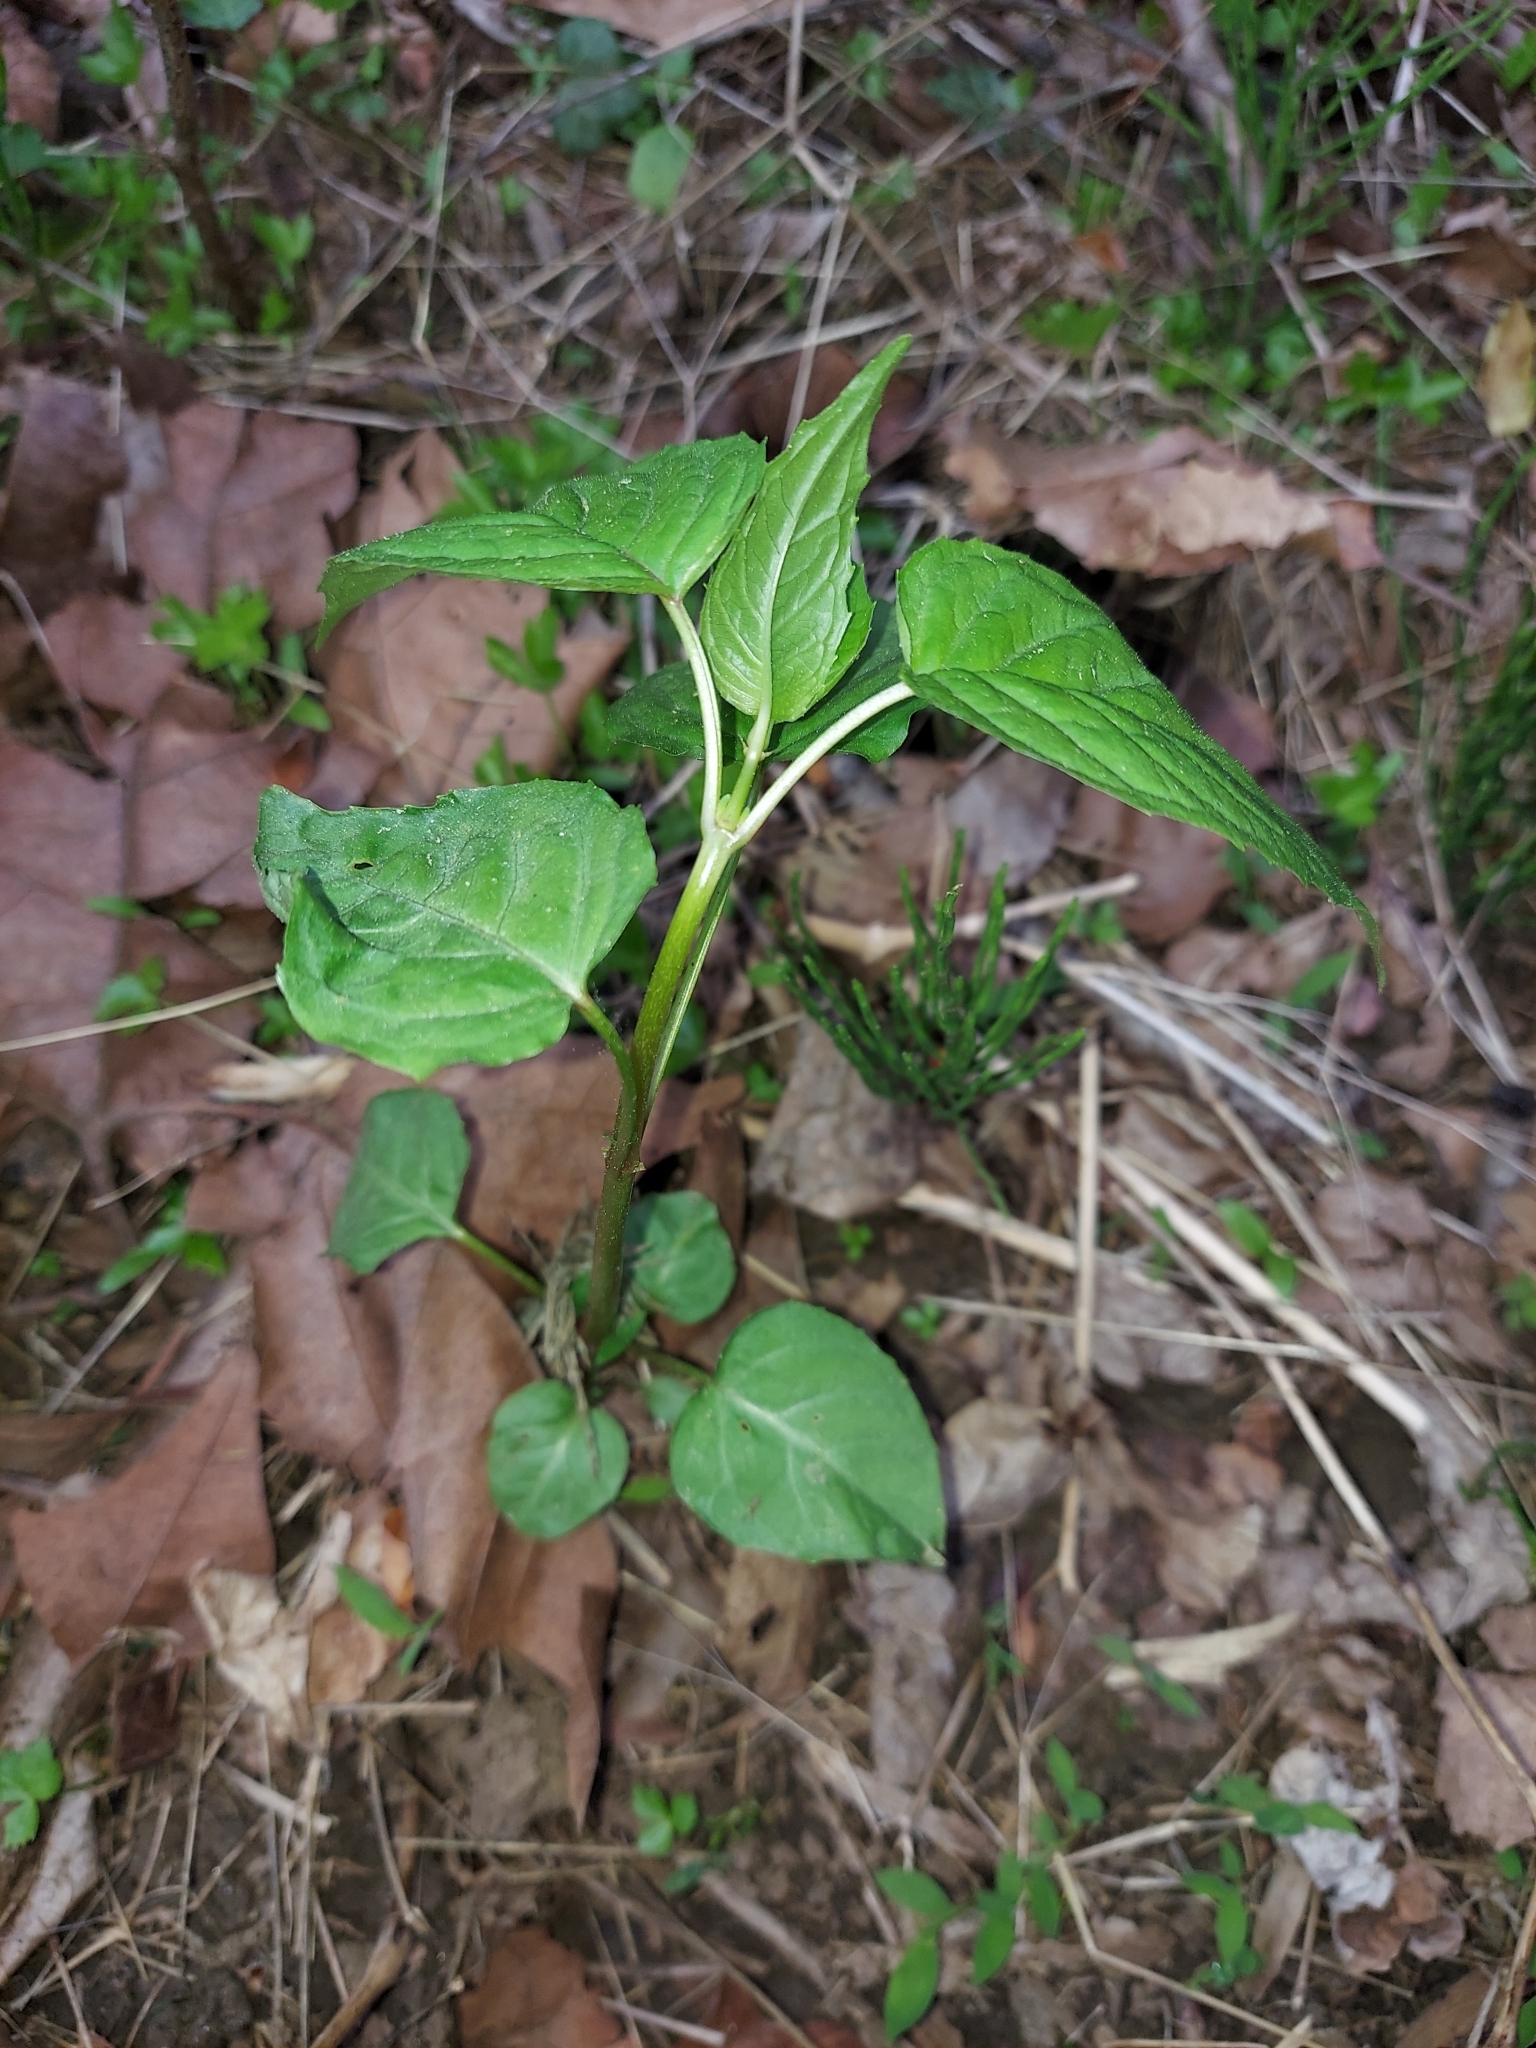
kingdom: Plantae
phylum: Tracheophyta
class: Magnoliopsida
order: Myrtales
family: Onagraceae
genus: Circaea
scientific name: Circaea canadensis
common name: Broad-leaved enchanter's nightshade
